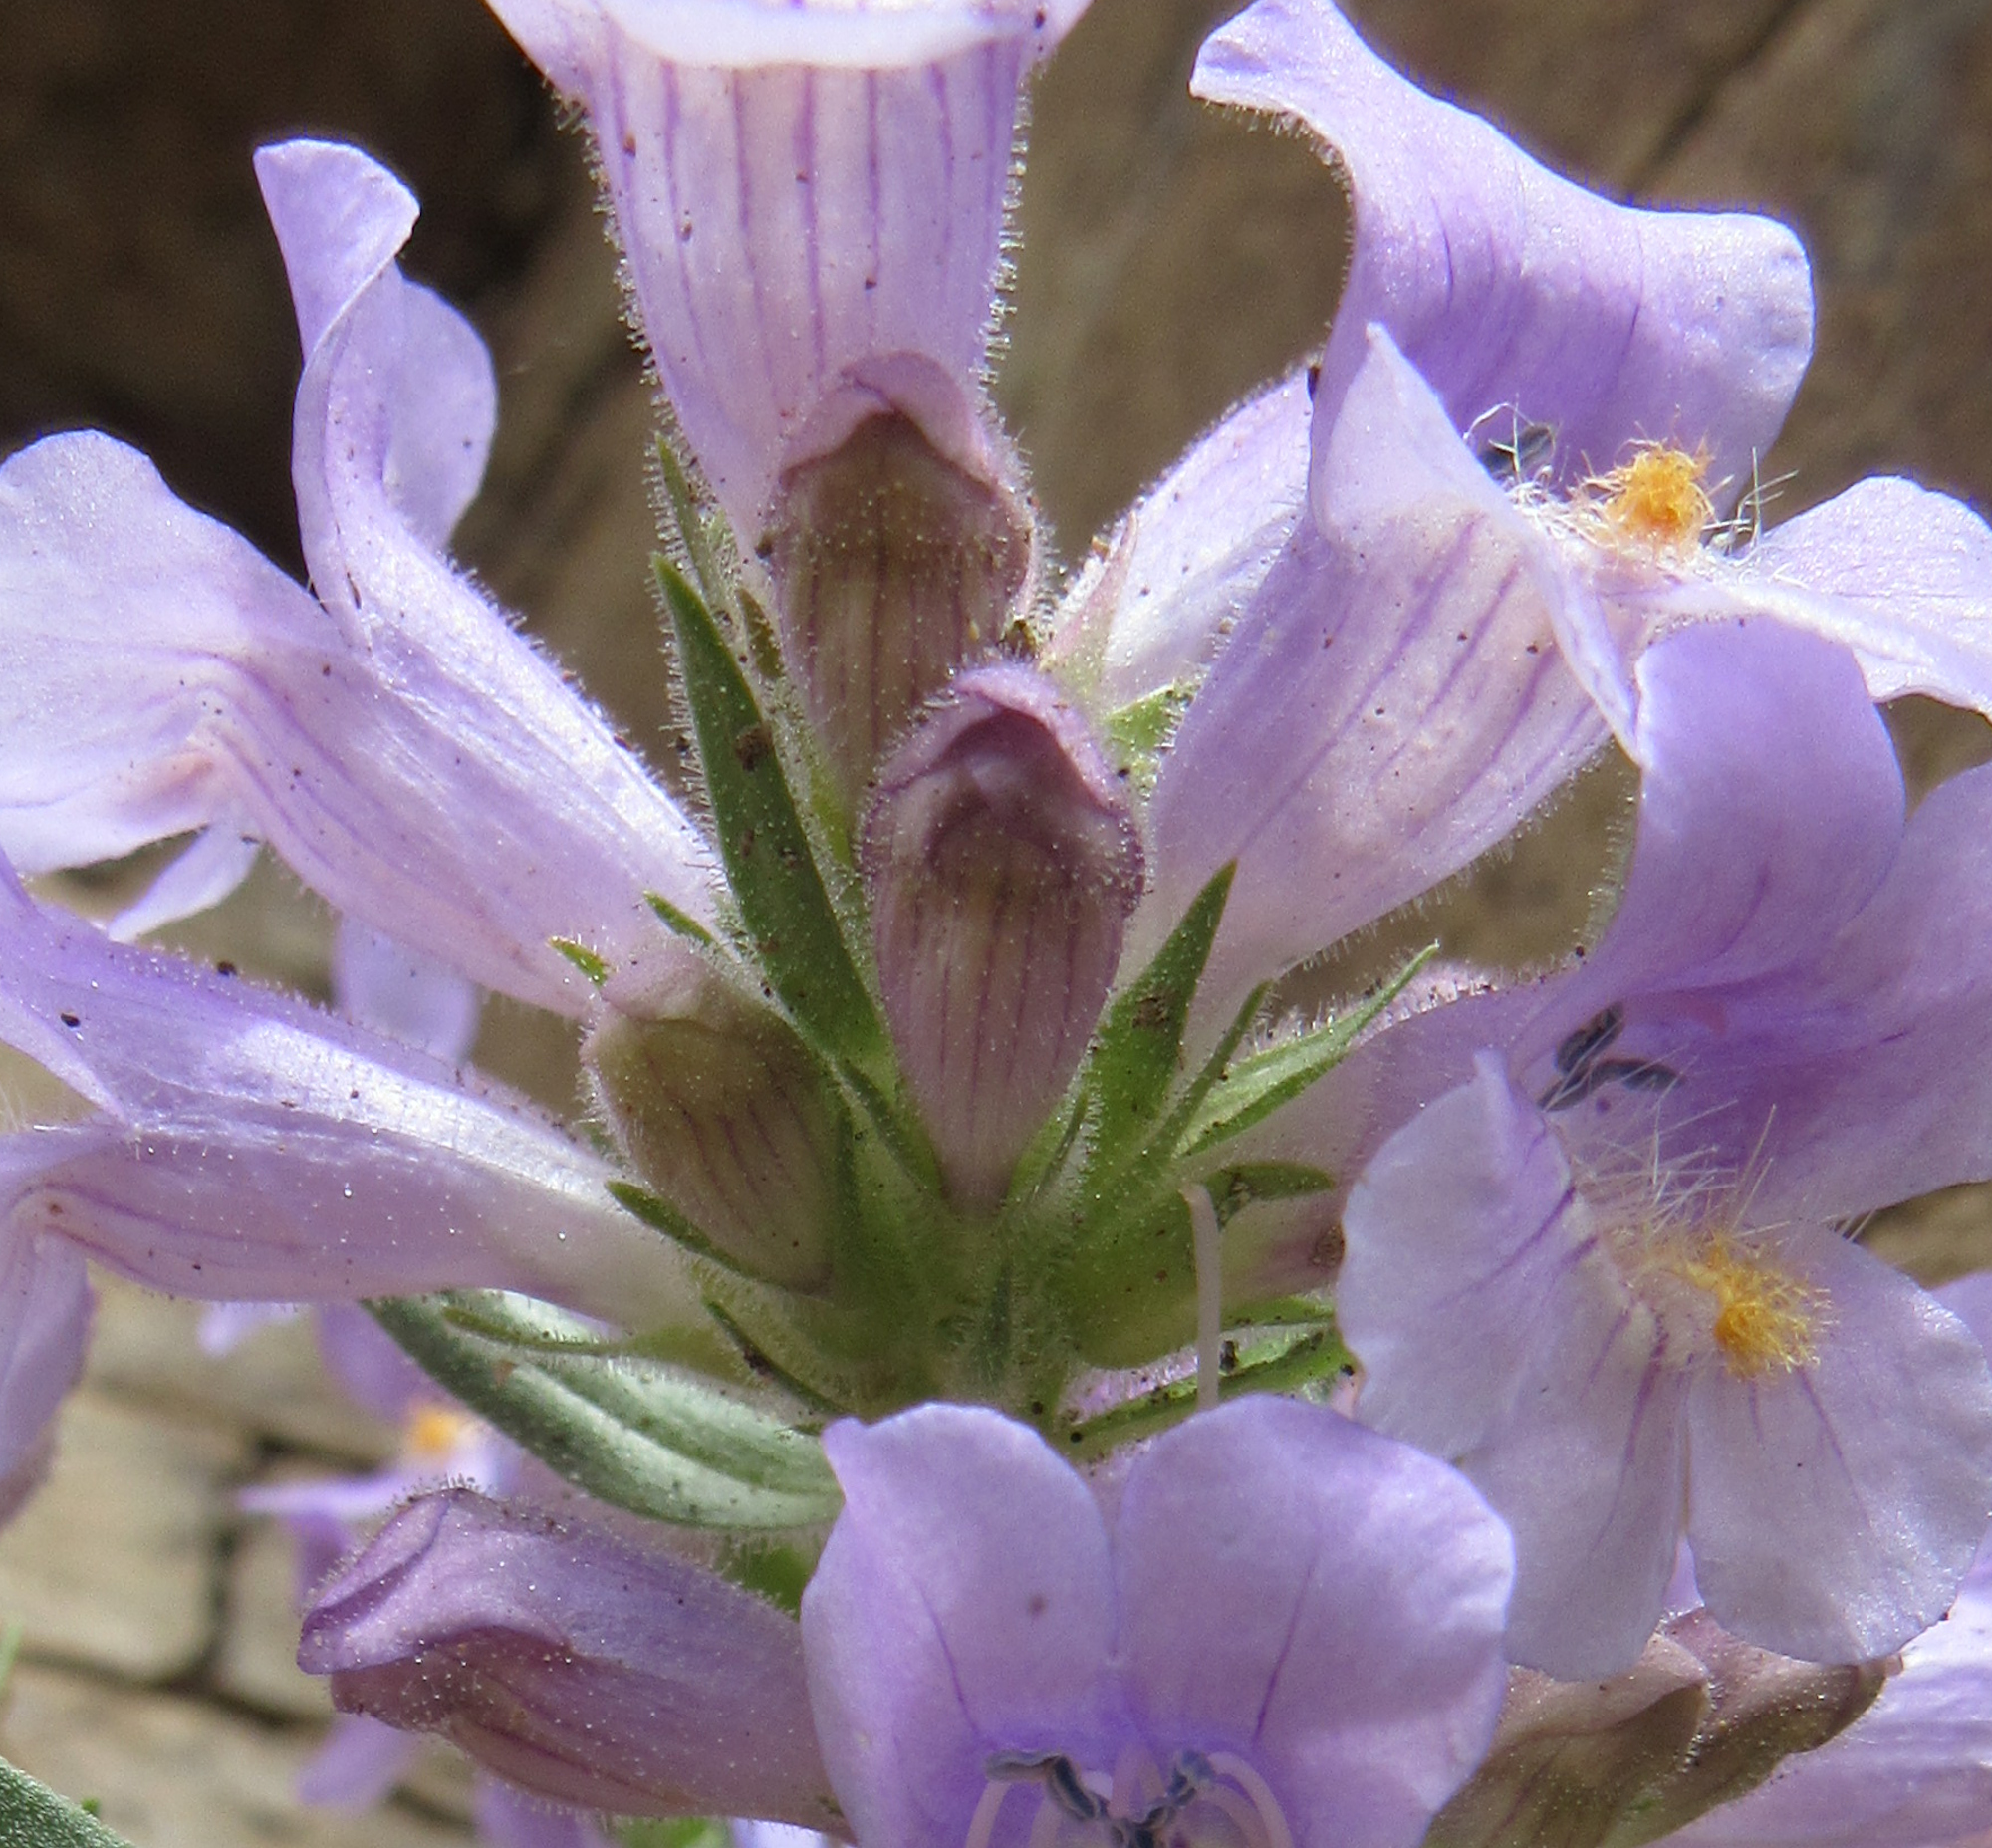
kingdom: Plantae
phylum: Tracheophyta
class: Magnoliopsida
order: Lamiales
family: Plantaginaceae
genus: Penstemon
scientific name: Penstemon eriantherus
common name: Crested beardtongue
